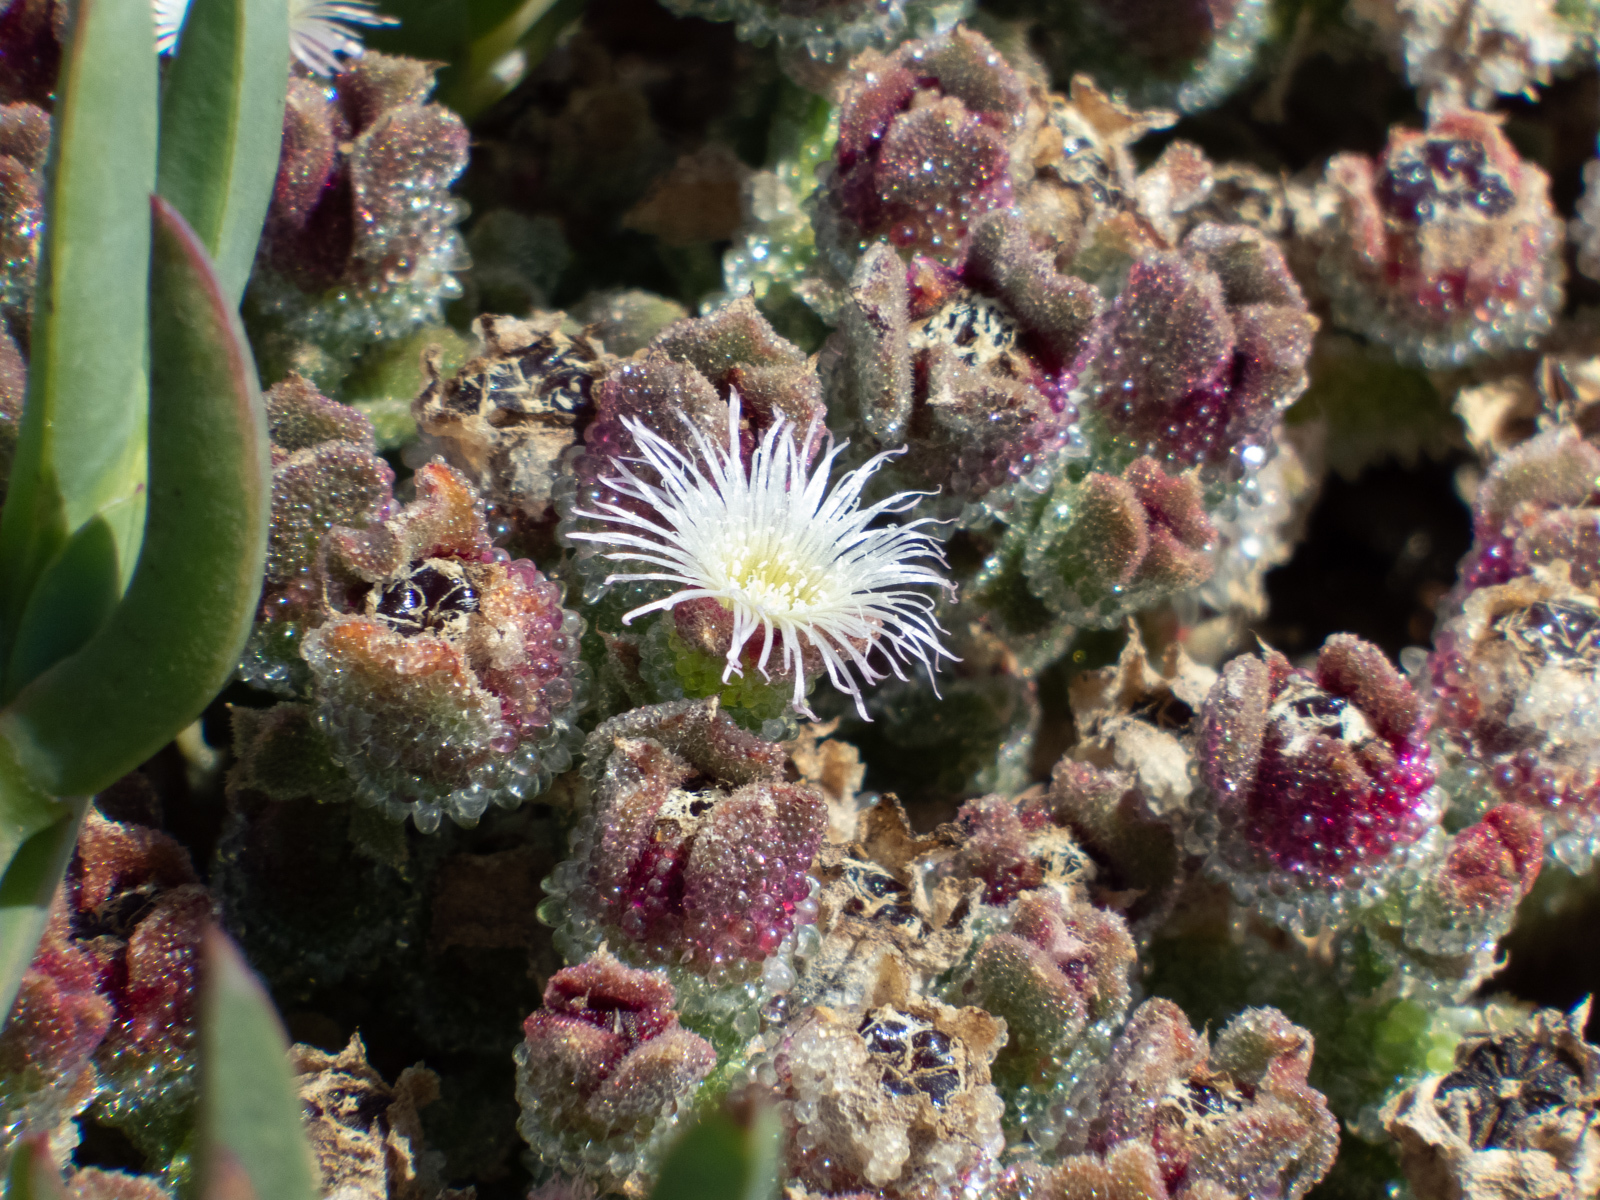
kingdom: Plantae
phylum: Tracheophyta
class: Magnoliopsida
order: Caryophyllales
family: Aizoaceae
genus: Mesembryanthemum
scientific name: Mesembryanthemum crystallinum
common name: Common iceplant
